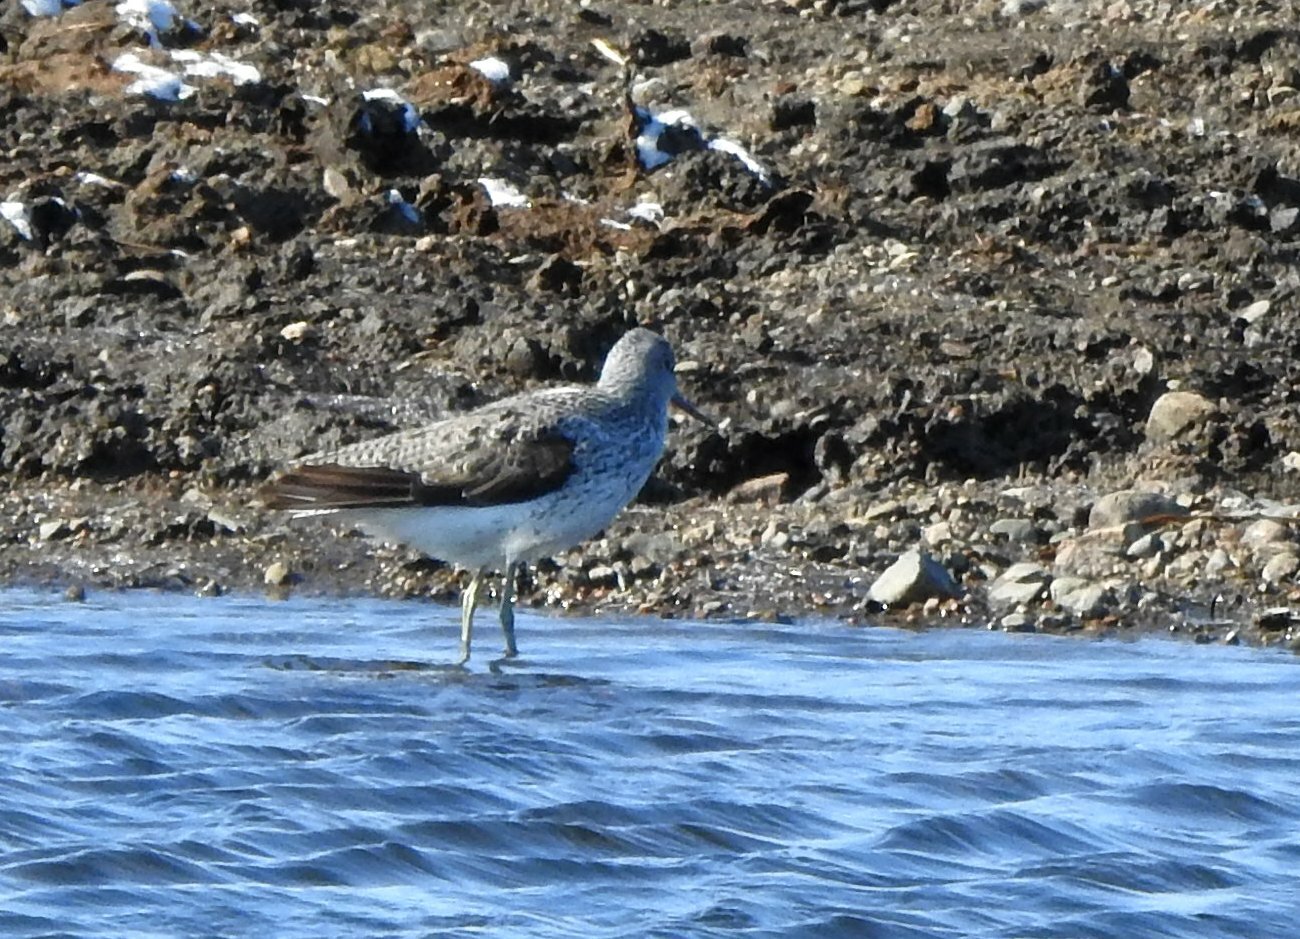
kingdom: Animalia
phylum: Chordata
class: Aves
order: Charadriiformes
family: Scolopacidae
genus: Tringa
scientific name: Tringa nebularia
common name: Common greenshank
